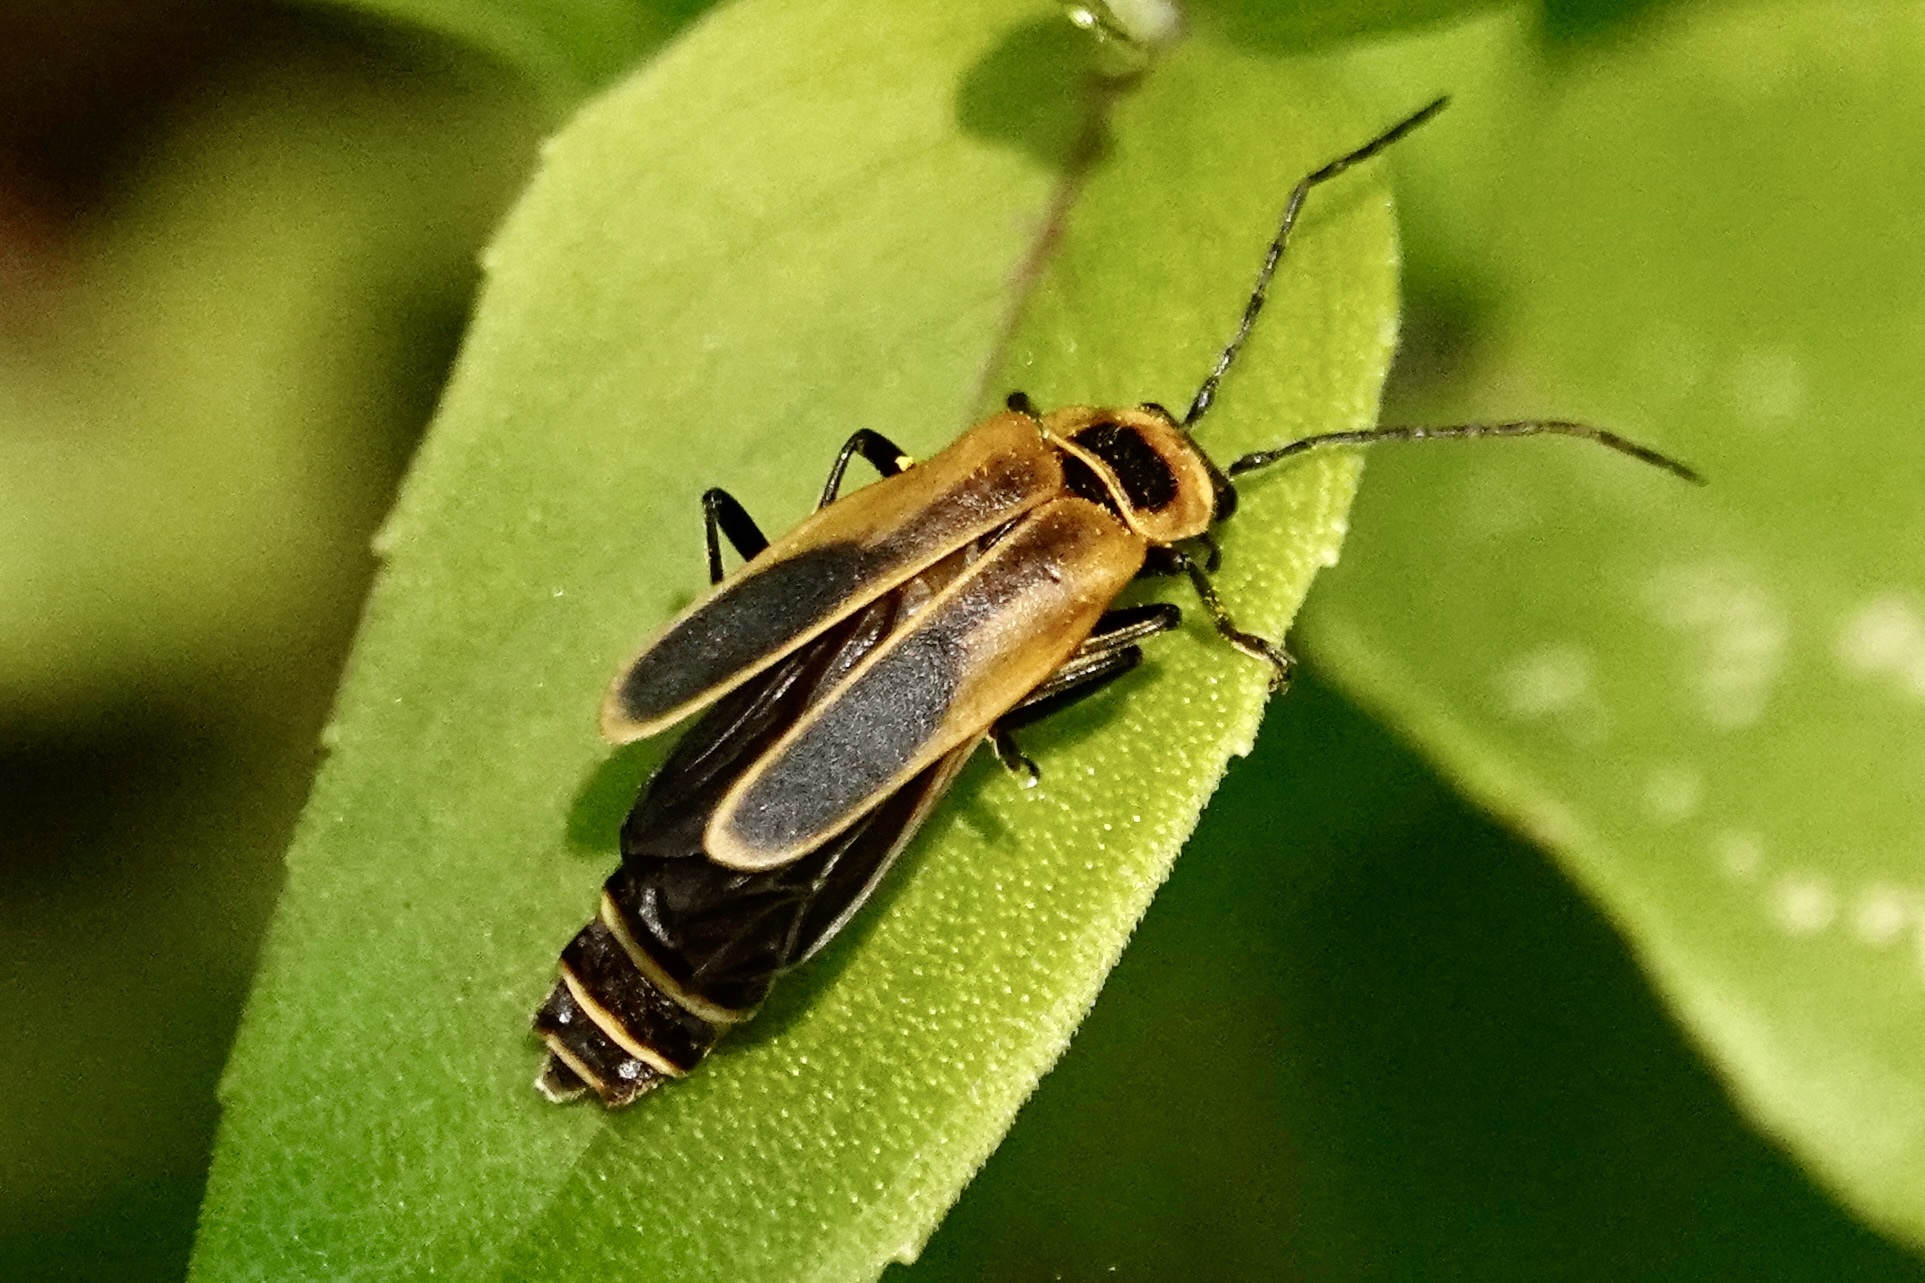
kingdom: Animalia
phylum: Arthropoda
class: Insecta
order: Coleoptera
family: Cantharidae
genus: Chauliognathus
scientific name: Chauliognathus pensylvanicus
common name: Goldenrod soldier beetle
